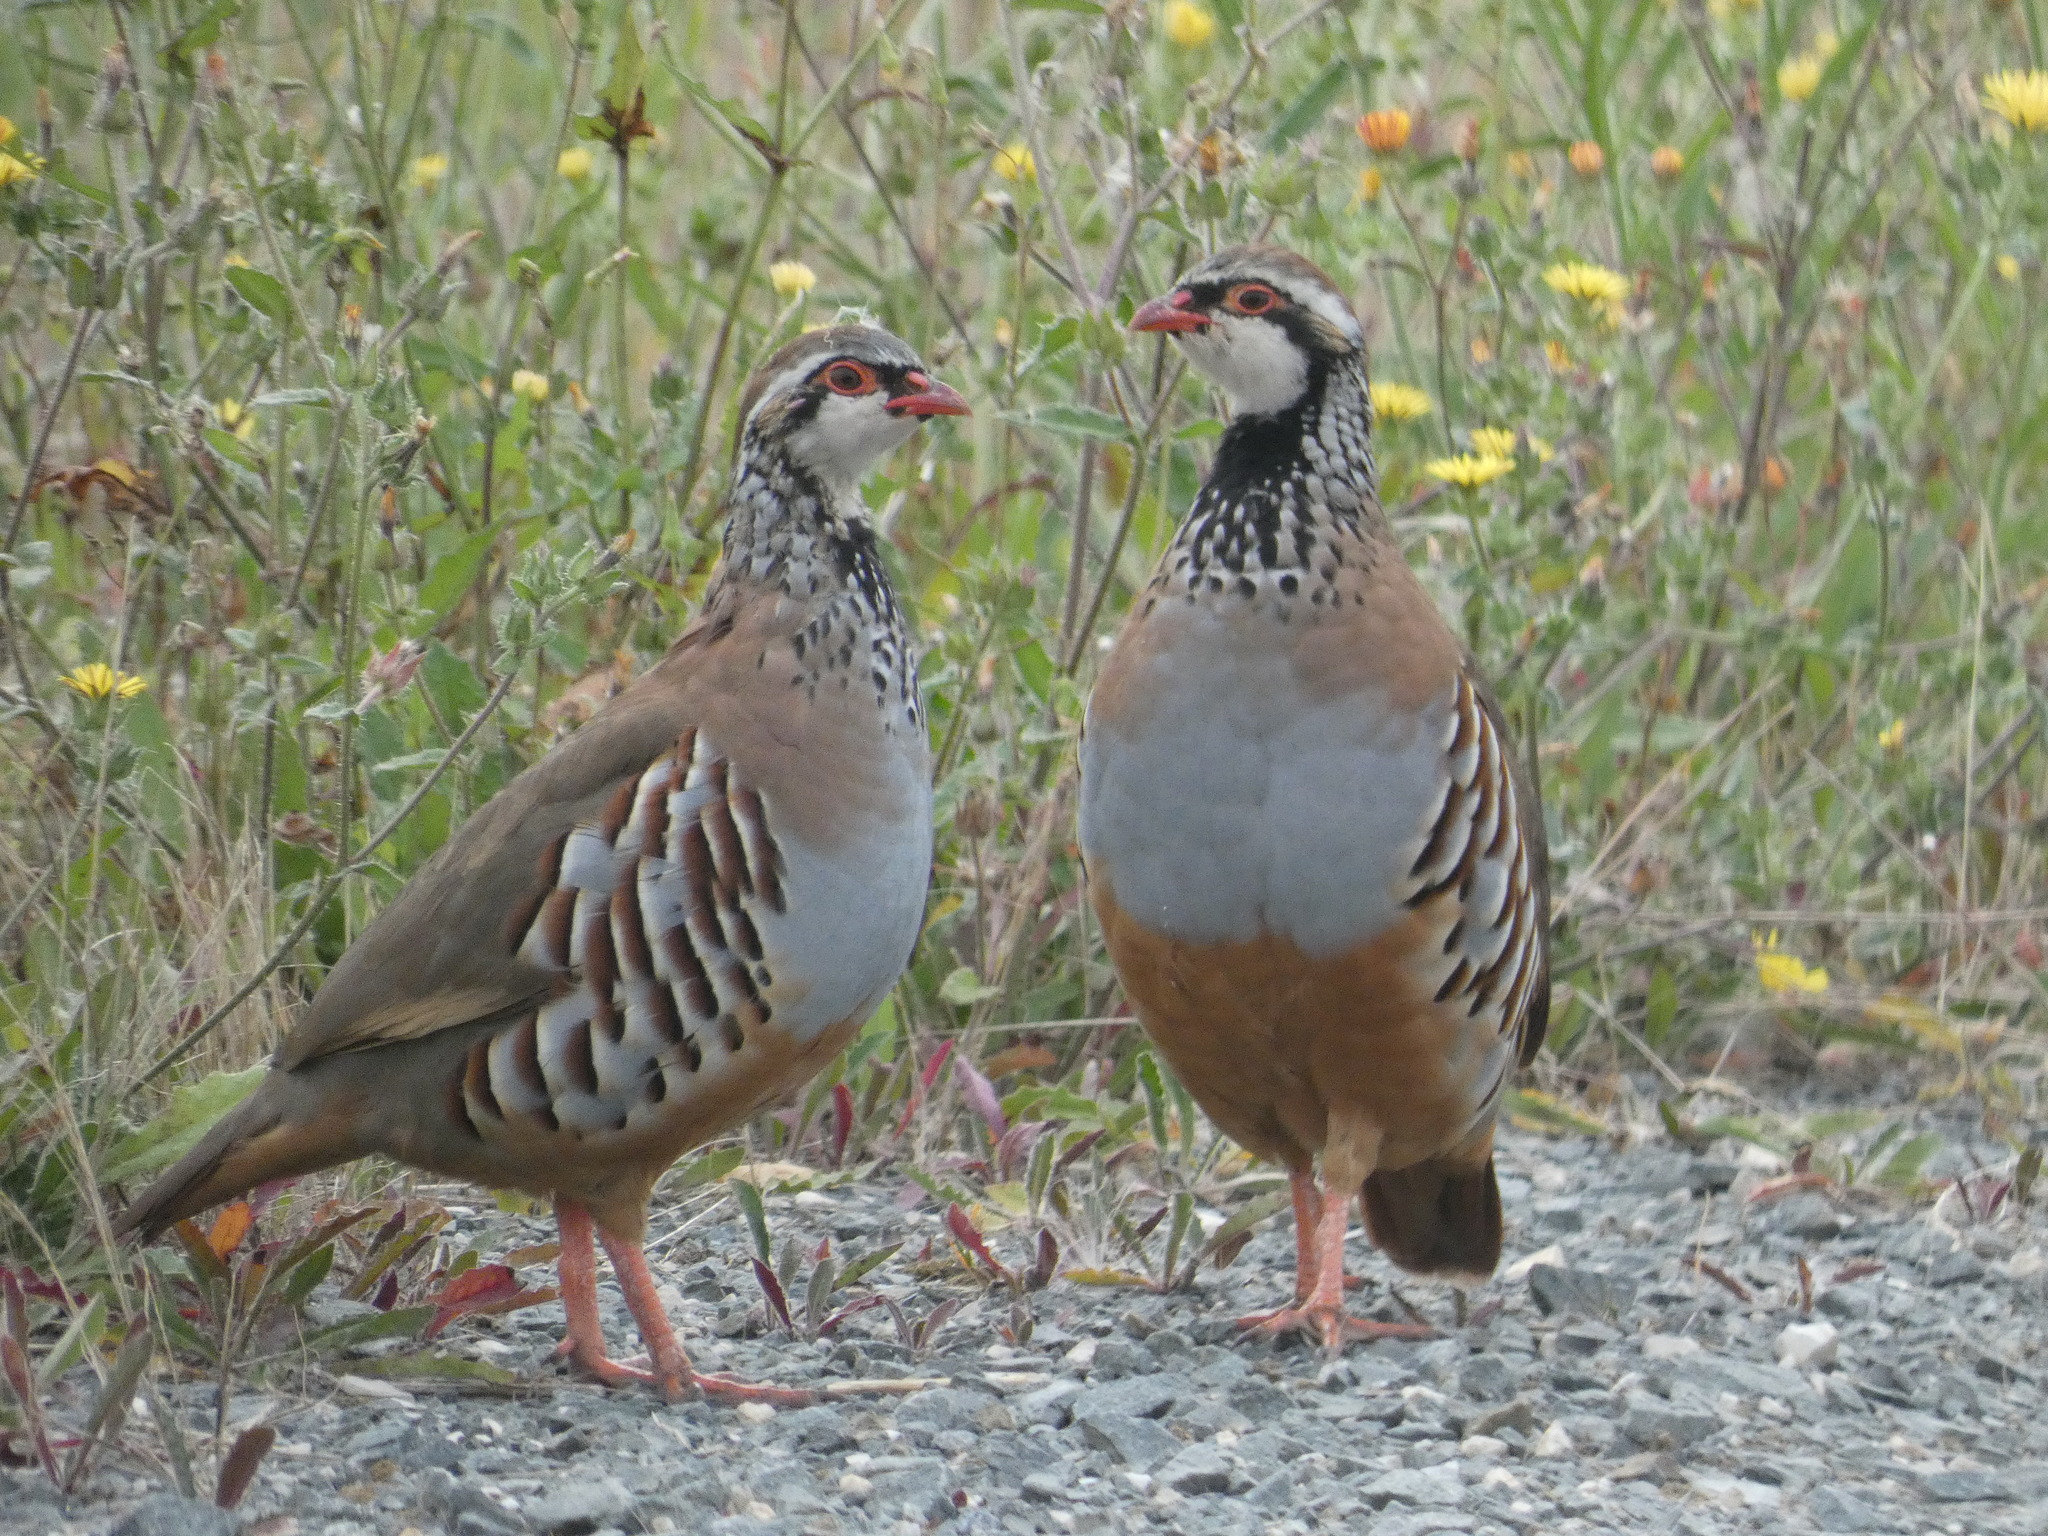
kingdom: Animalia
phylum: Chordata
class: Aves
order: Galliformes
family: Phasianidae
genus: Alectoris
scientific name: Alectoris rufa
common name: Red-legged partridge
